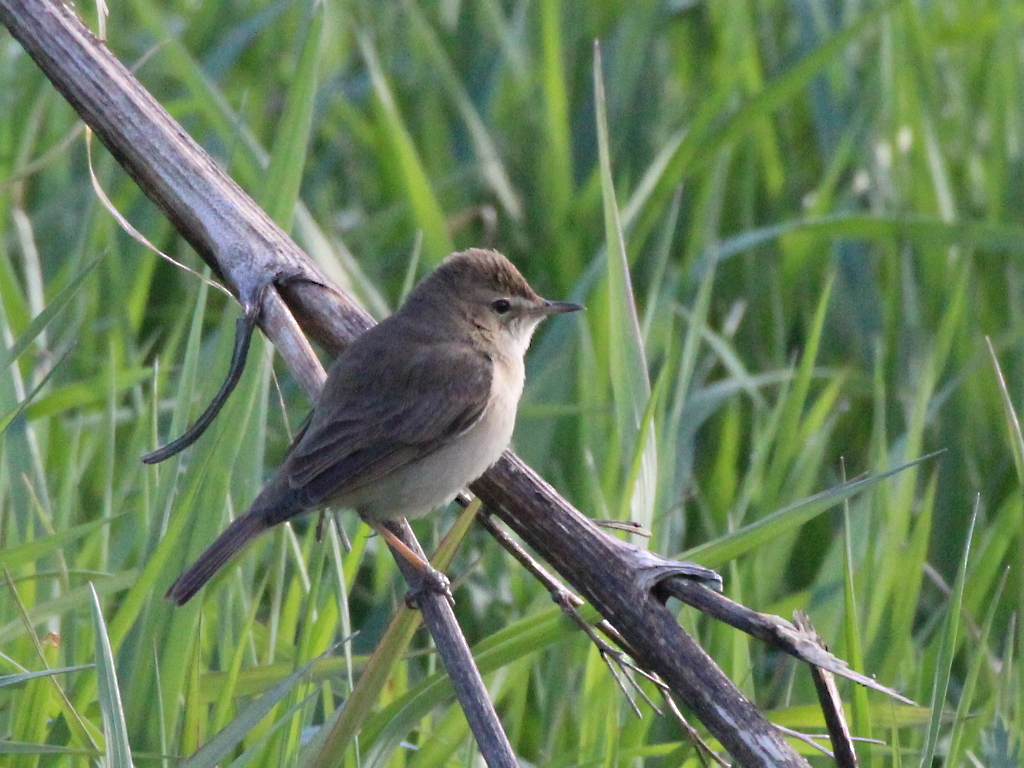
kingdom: Animalia
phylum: Chordata
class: Aves
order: Passeriformes
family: Acrocephalidae
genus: Iduna
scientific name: Iduna caligata
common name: Booted warbler
